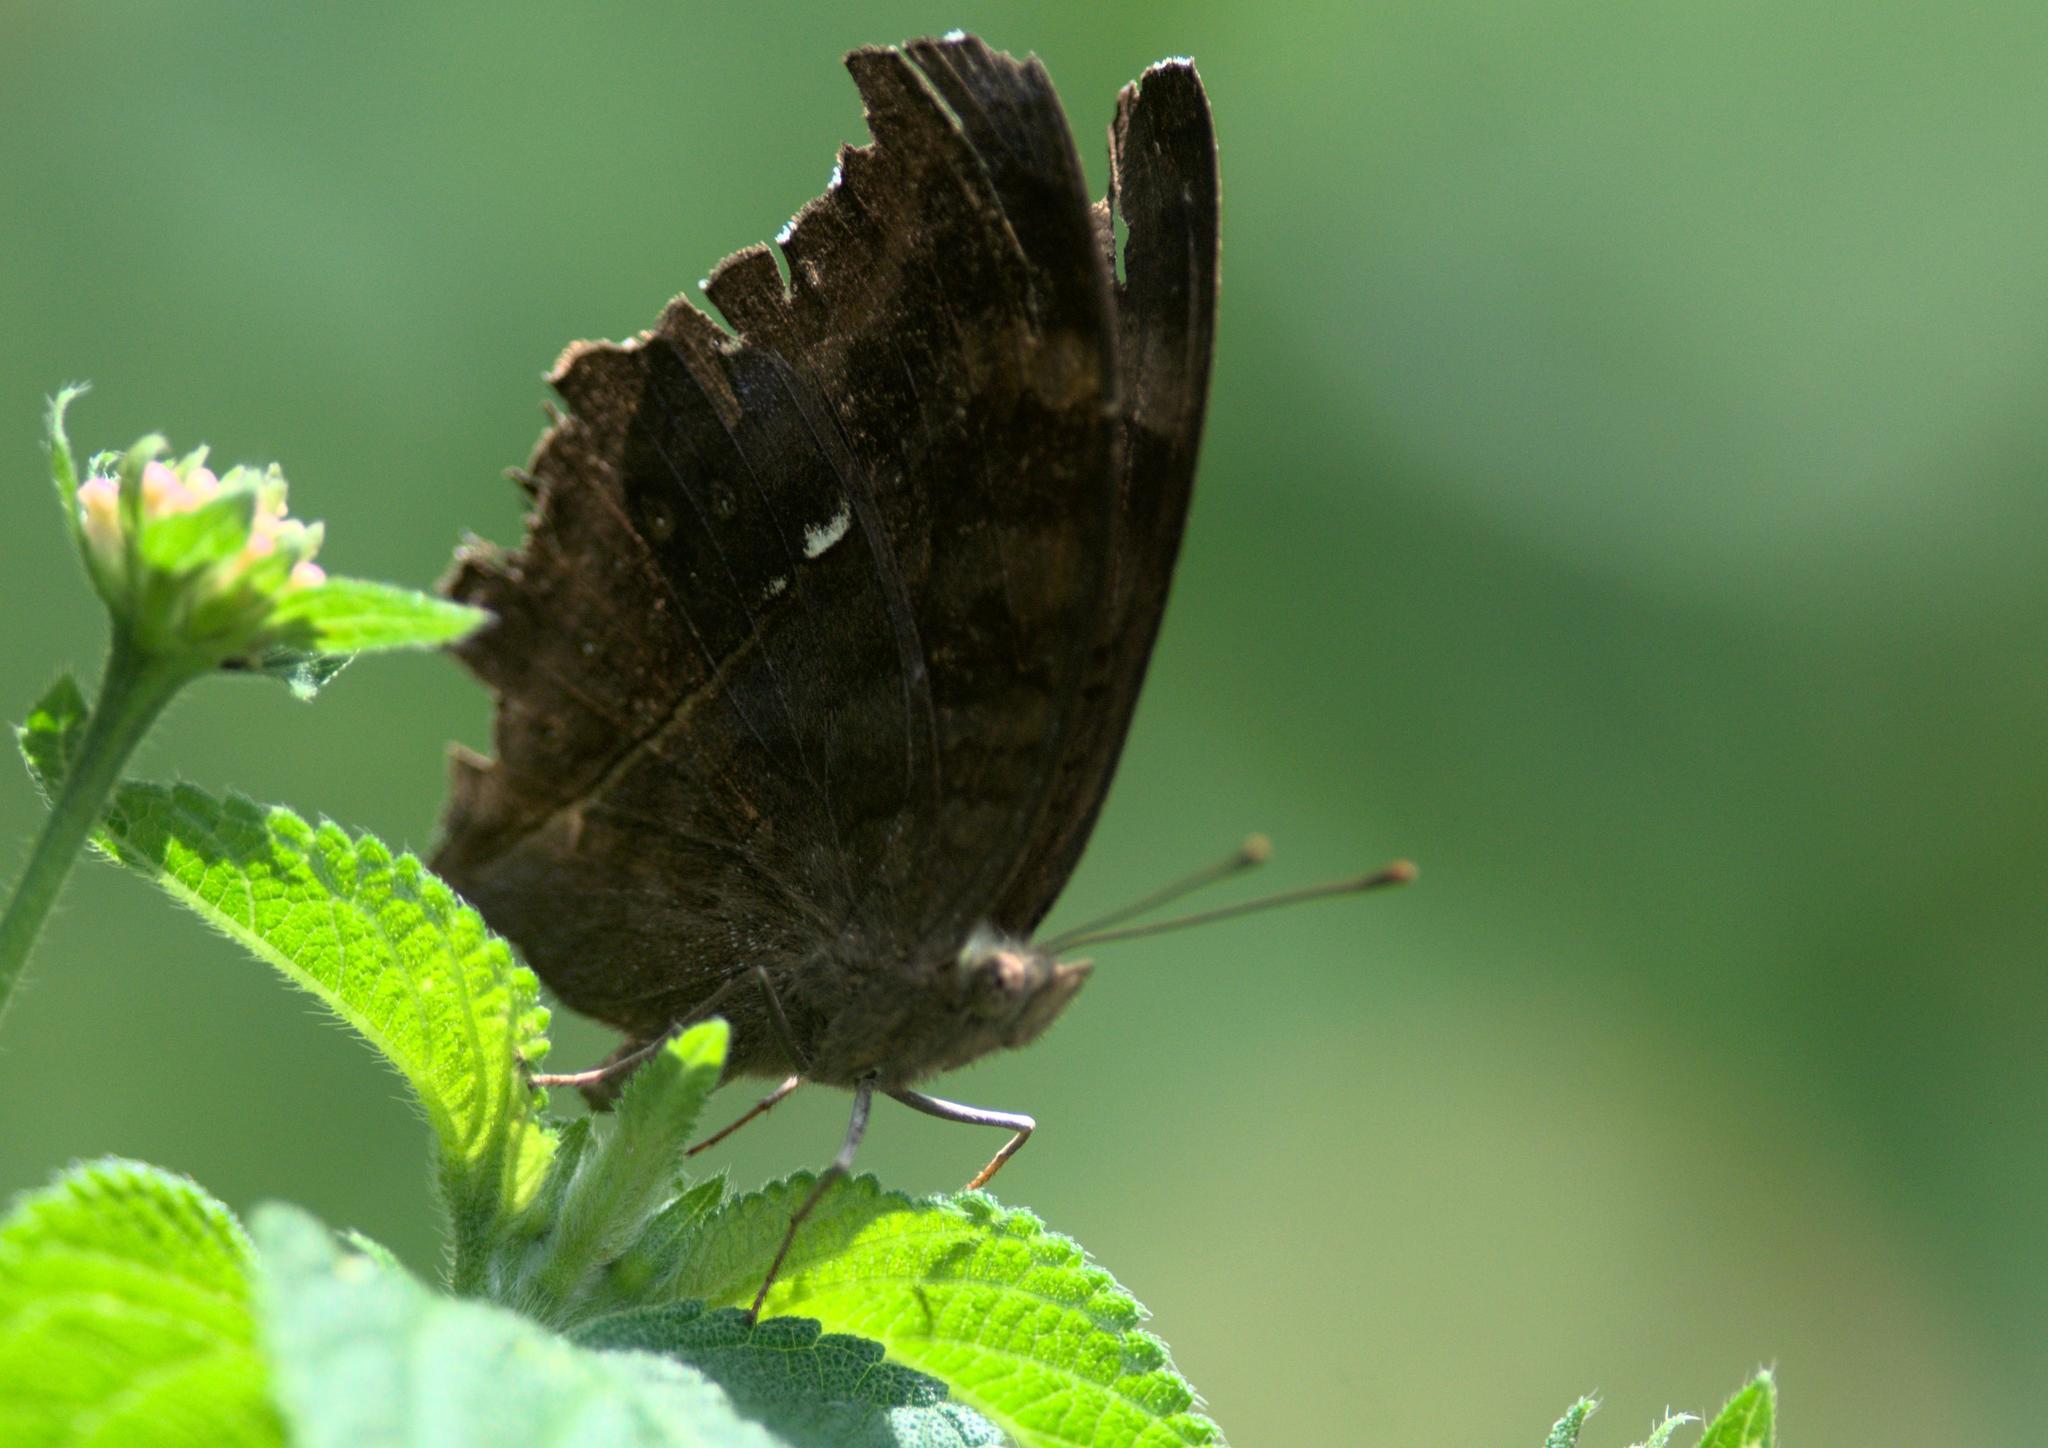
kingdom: Animalia
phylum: Arthropoda
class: Insecta
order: Lepidoptera
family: Nymphalidae
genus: Junonia
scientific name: Junonia iphita
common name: Chocolate pansy
